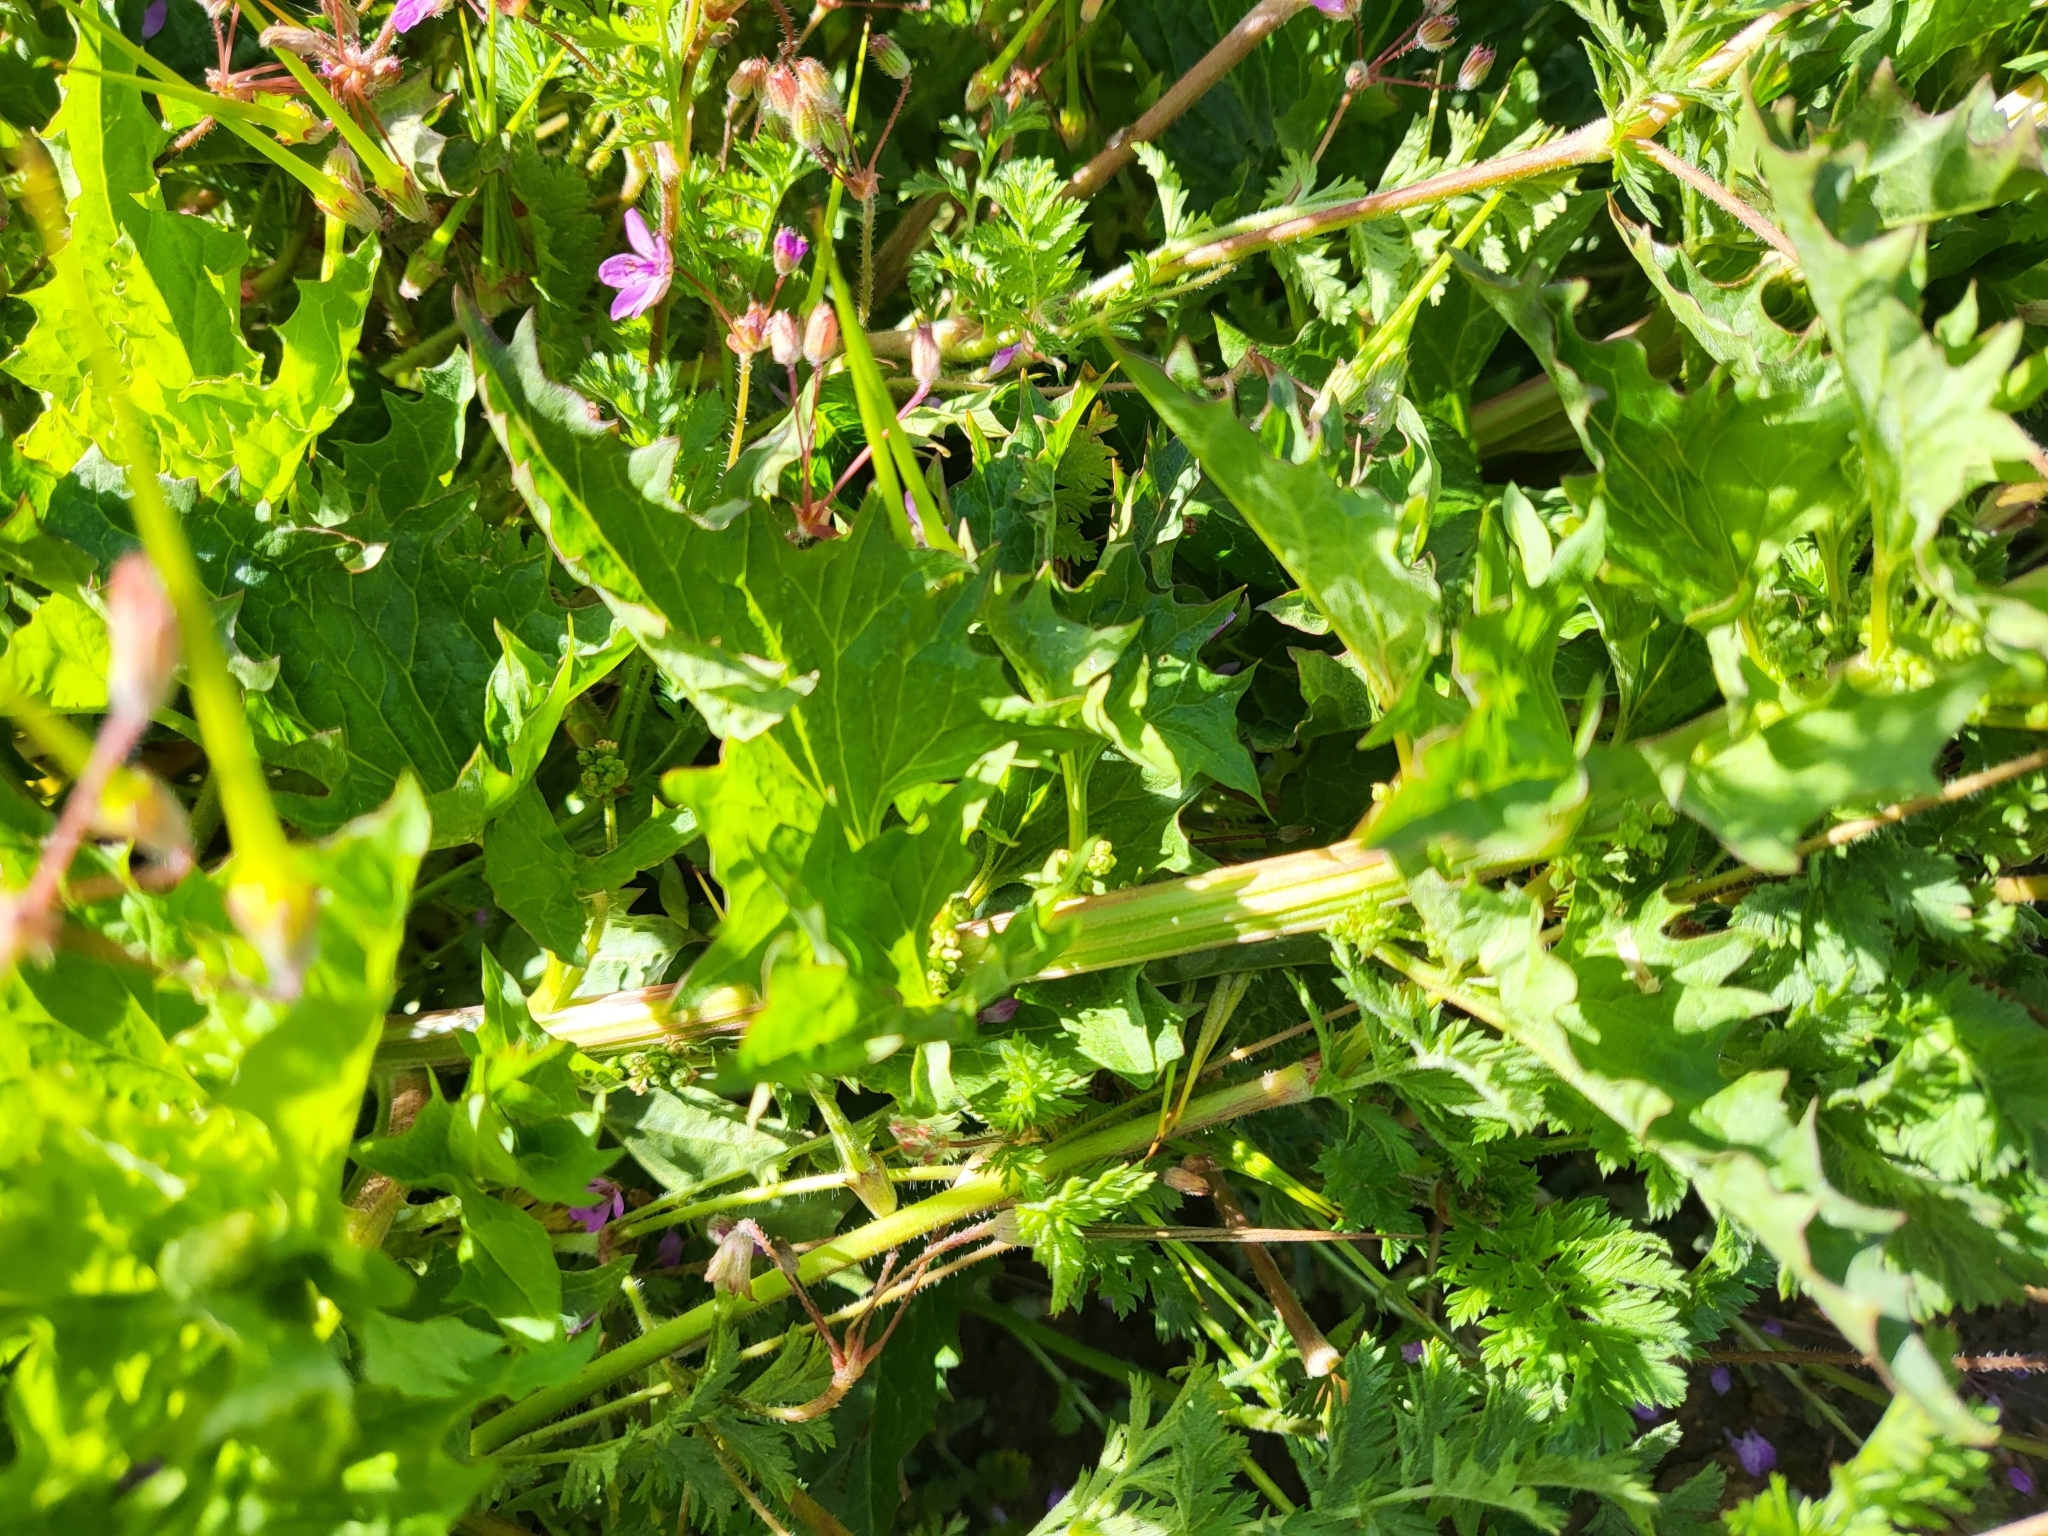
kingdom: Plantae
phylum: Tracheophyta
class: Magnoliopsida
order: Caryophyllales
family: Amaranthaceae
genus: Blitum
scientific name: Blitum californicum
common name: California goosefoot
